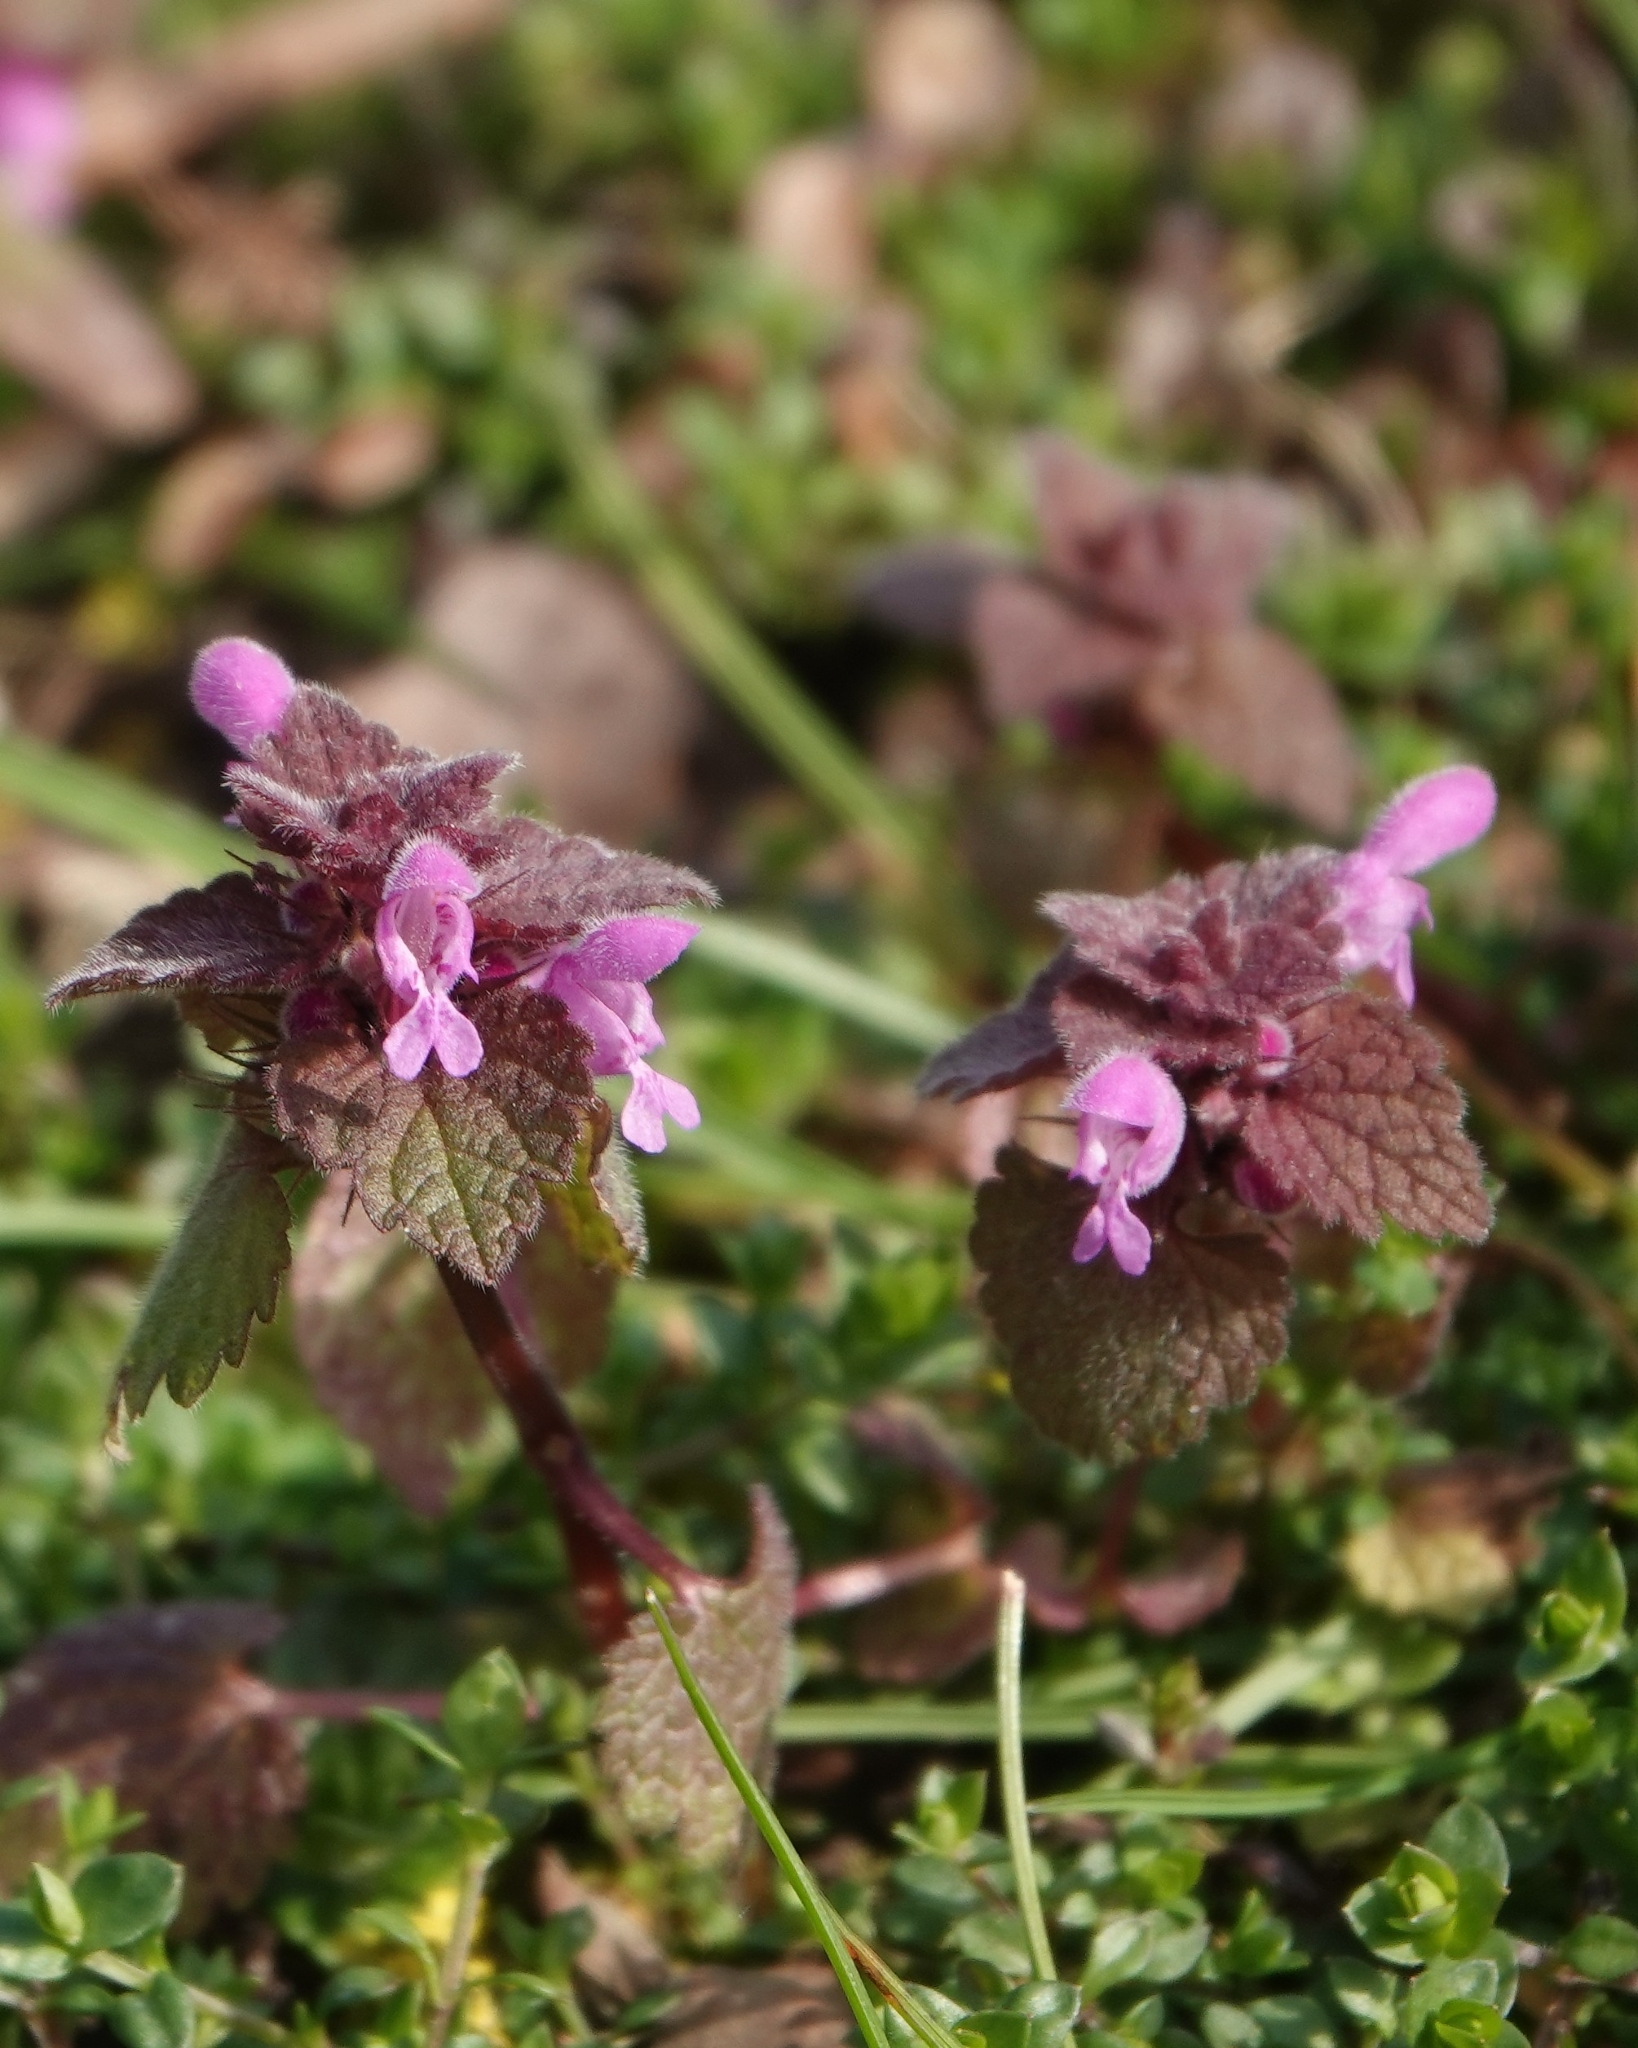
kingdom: Plantae
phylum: Tracheophyta
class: Magnoliopsida
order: Lamiales
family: Lamiaceae
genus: Lamium
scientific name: Lamium purpureum
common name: Red dead-nettle
